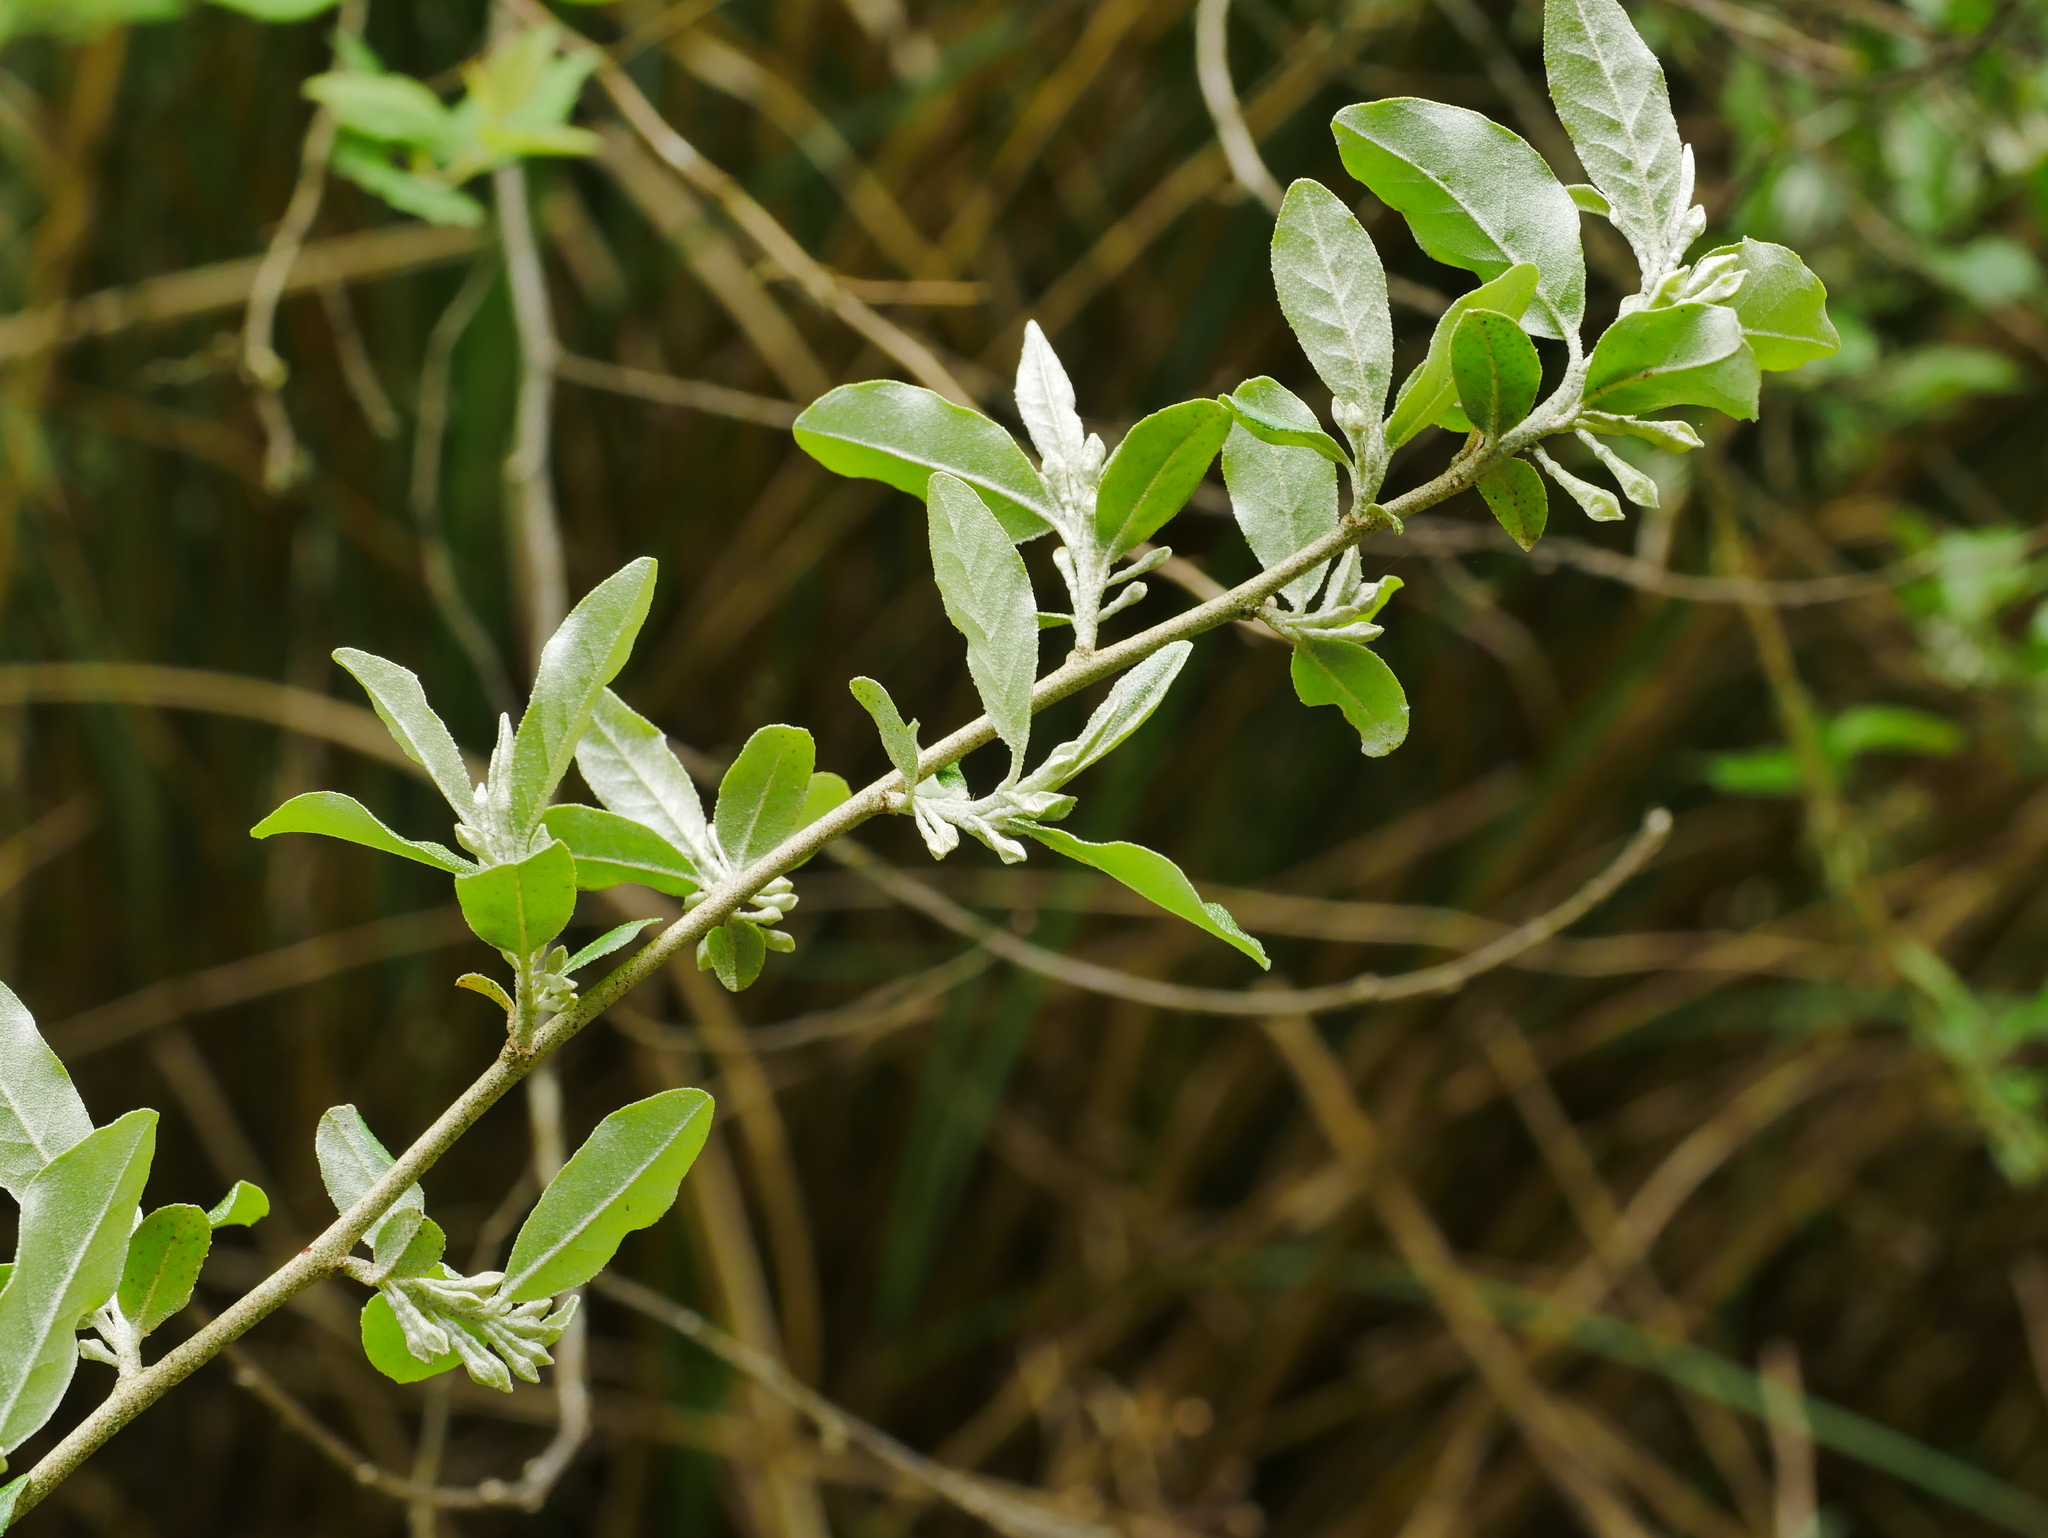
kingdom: Plantae
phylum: Tracheophyta
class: Magnoliopsida
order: Rosales
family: Elaeagnaceae
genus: Elaeagnus
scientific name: Elaeagnus umbellata
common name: Autumn olive
